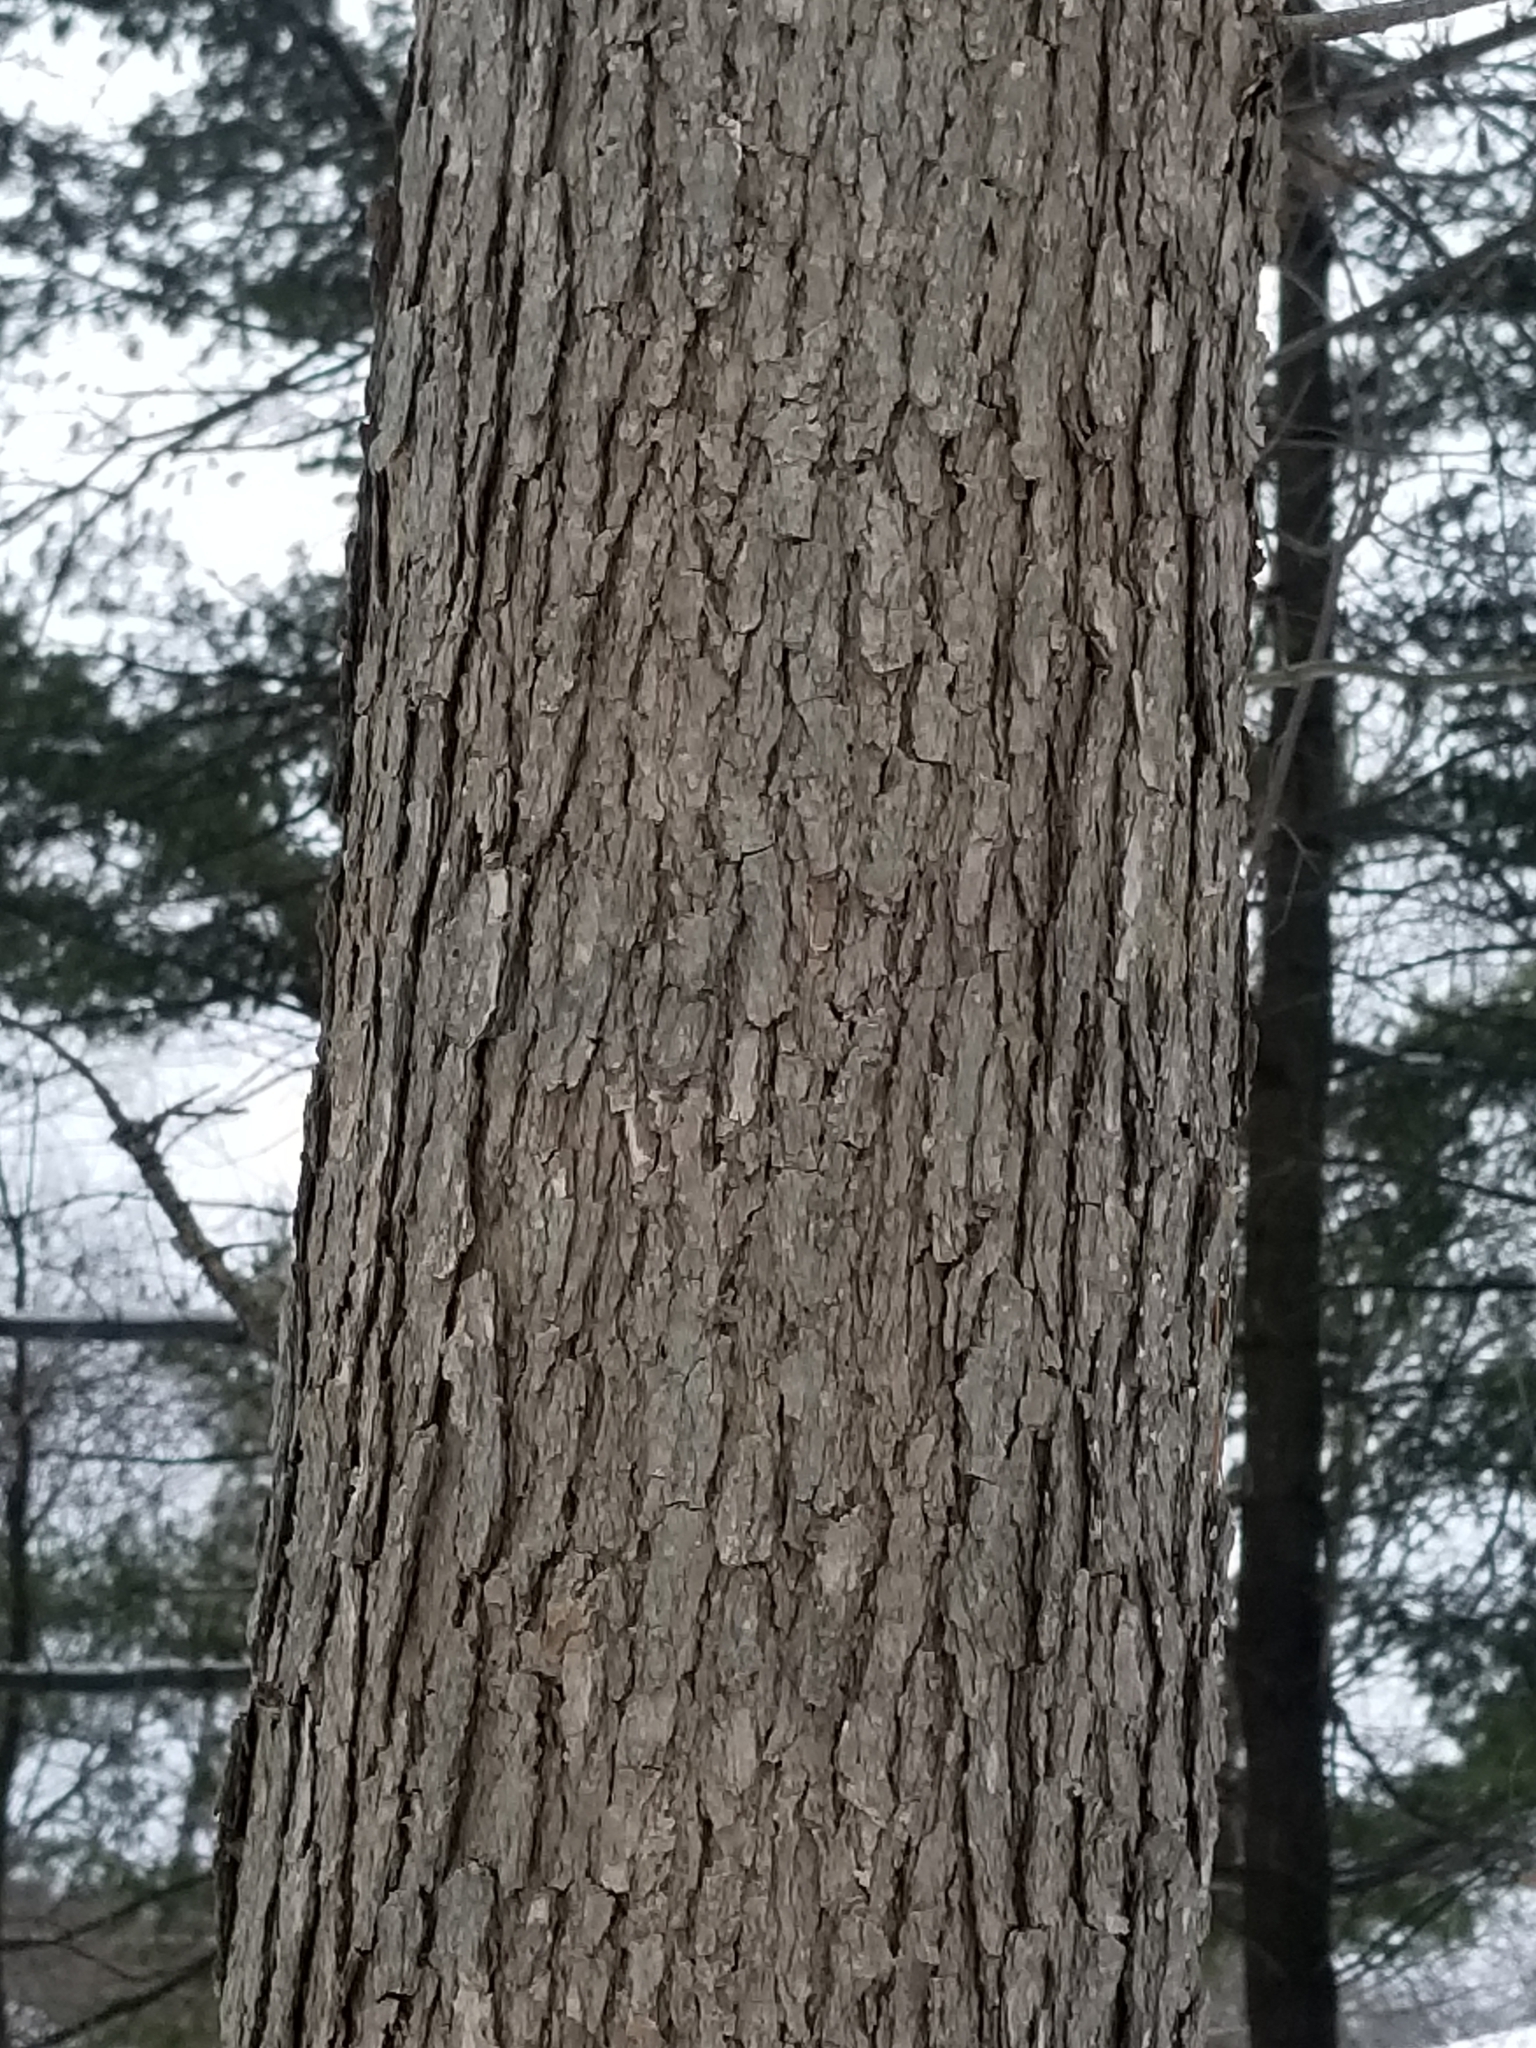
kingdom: Plantae
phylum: Tracheophyta
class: Magnoliopsida
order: Fagales
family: Fagaceae
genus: Quercus
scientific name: Quercus alba
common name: White oak
